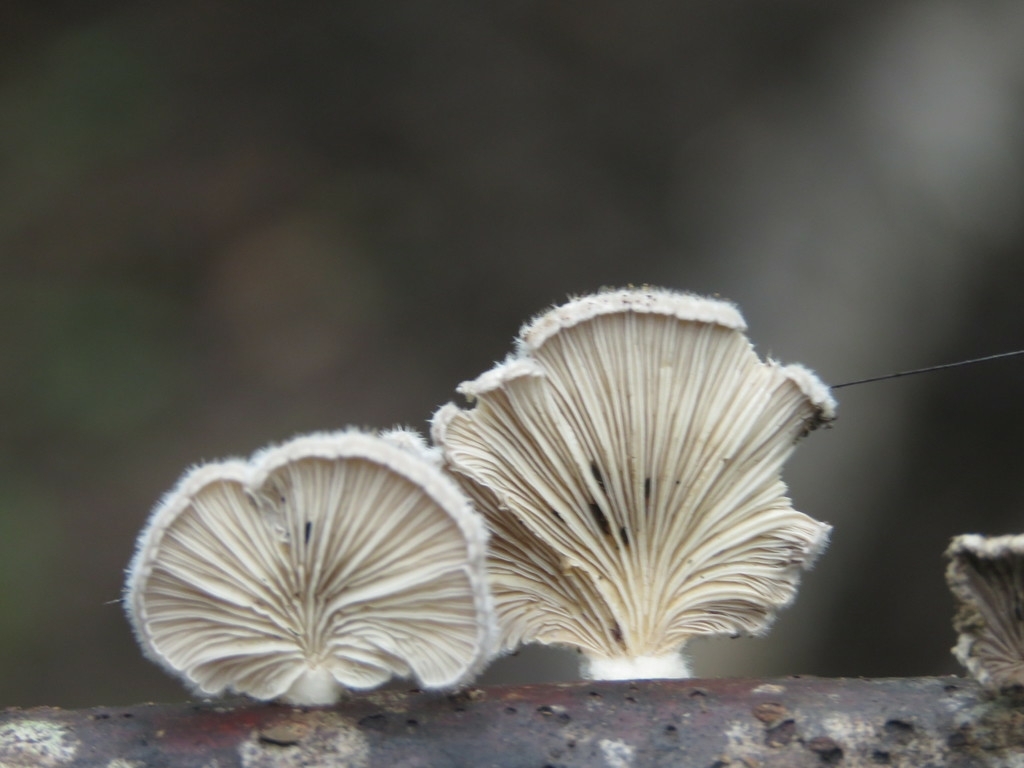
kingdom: Fungi
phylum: Basidiomycota
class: Agaricomycetes
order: Agaricales
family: Schizophyllaceae
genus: Schizophyllum
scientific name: Schizophyllum commune
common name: Common porecrust
